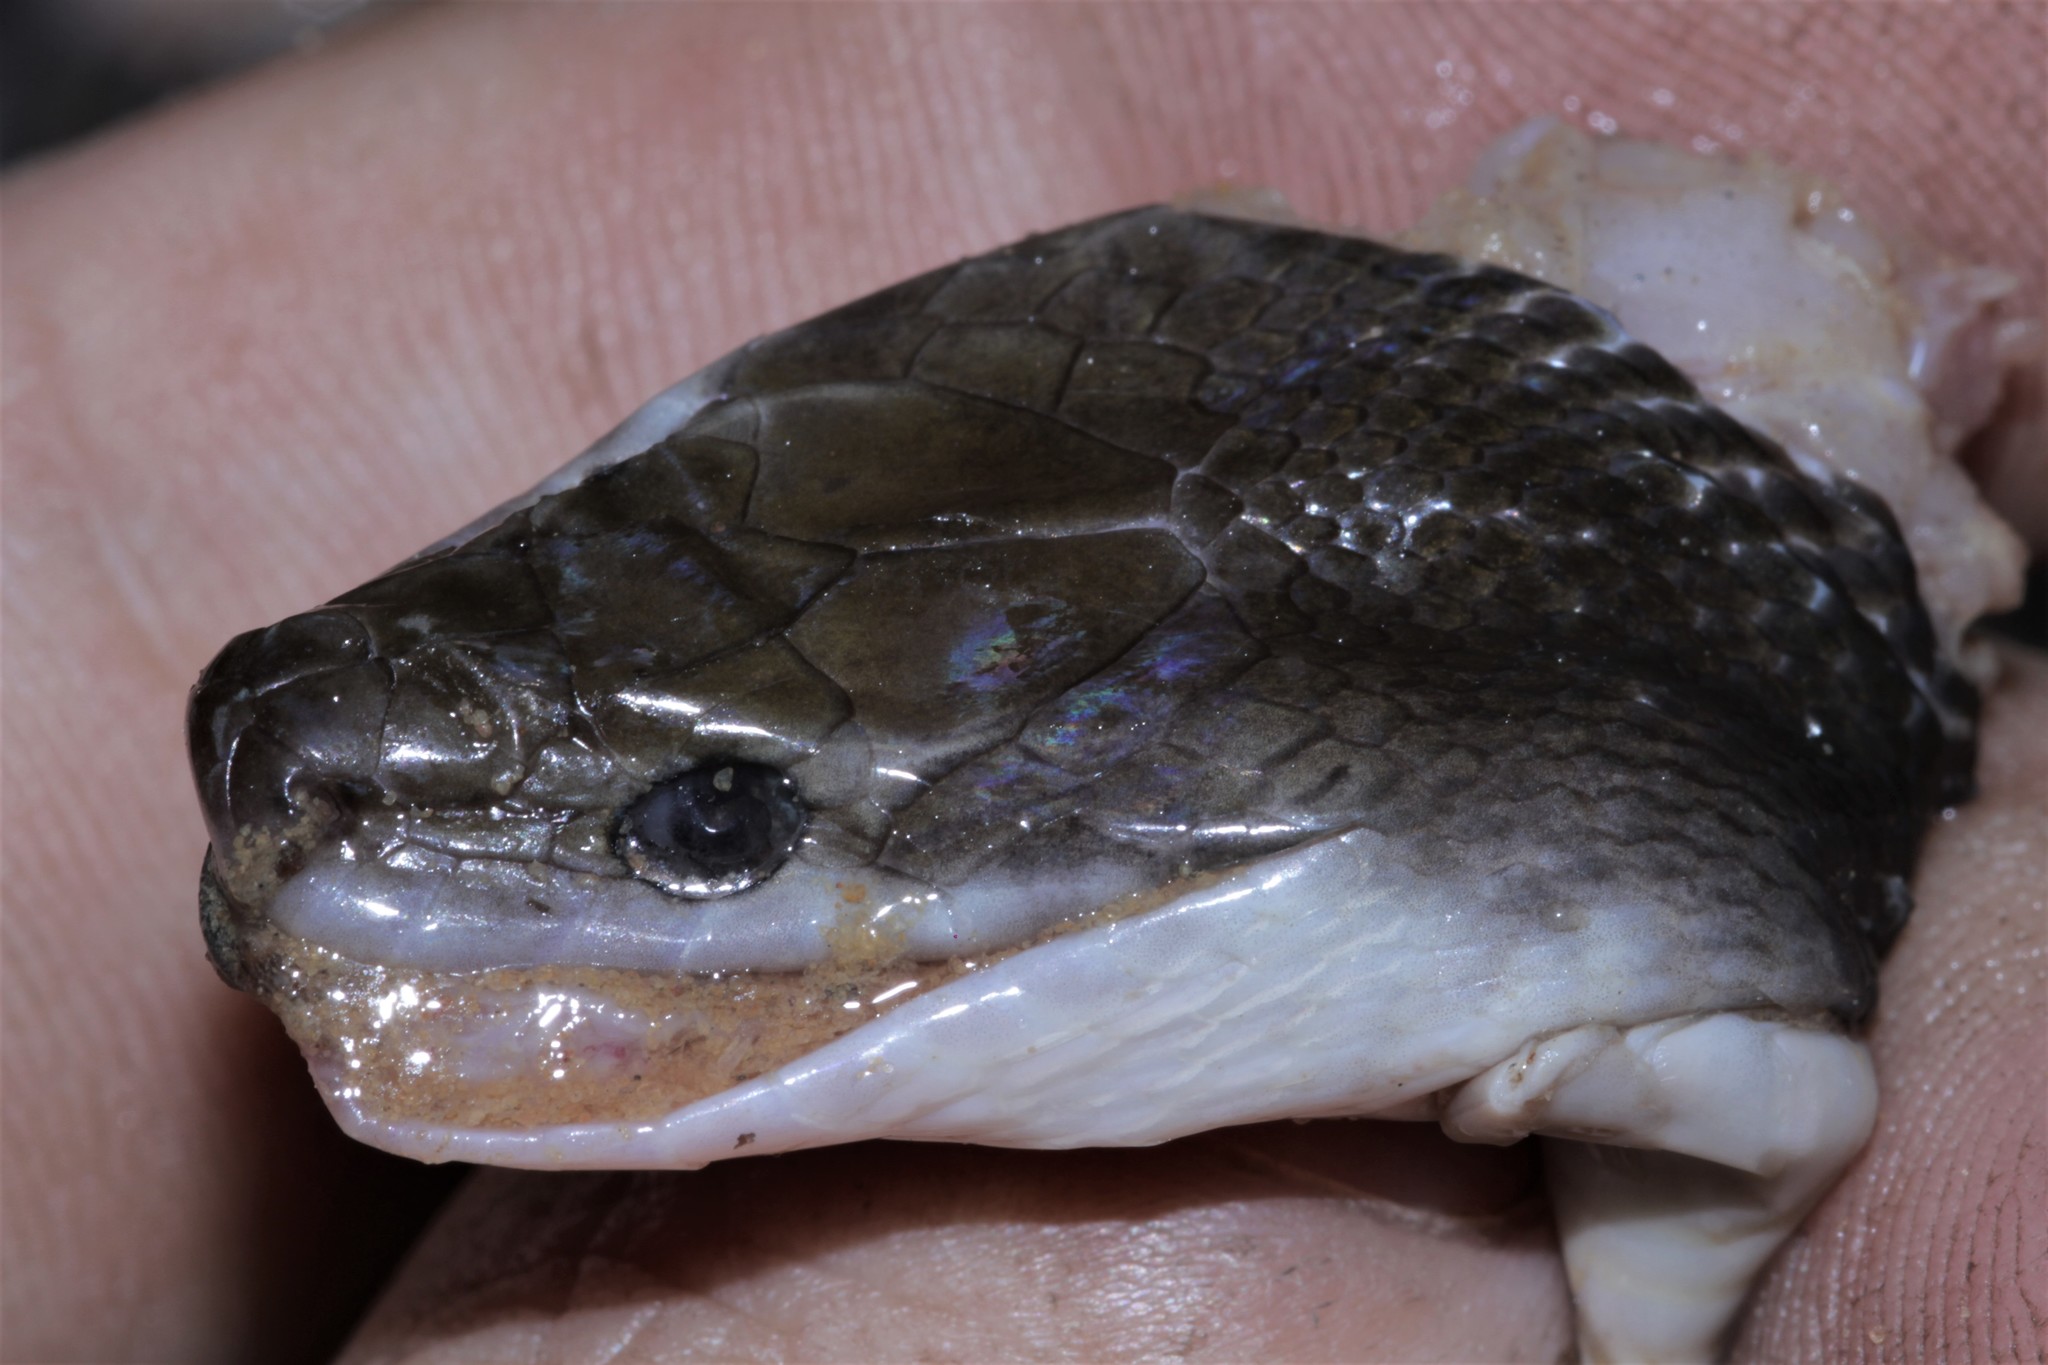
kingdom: Animalia
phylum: Chordata
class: Squamata
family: Lamprophiidae
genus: Boaedon
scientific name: Boaedon perisilvestris
